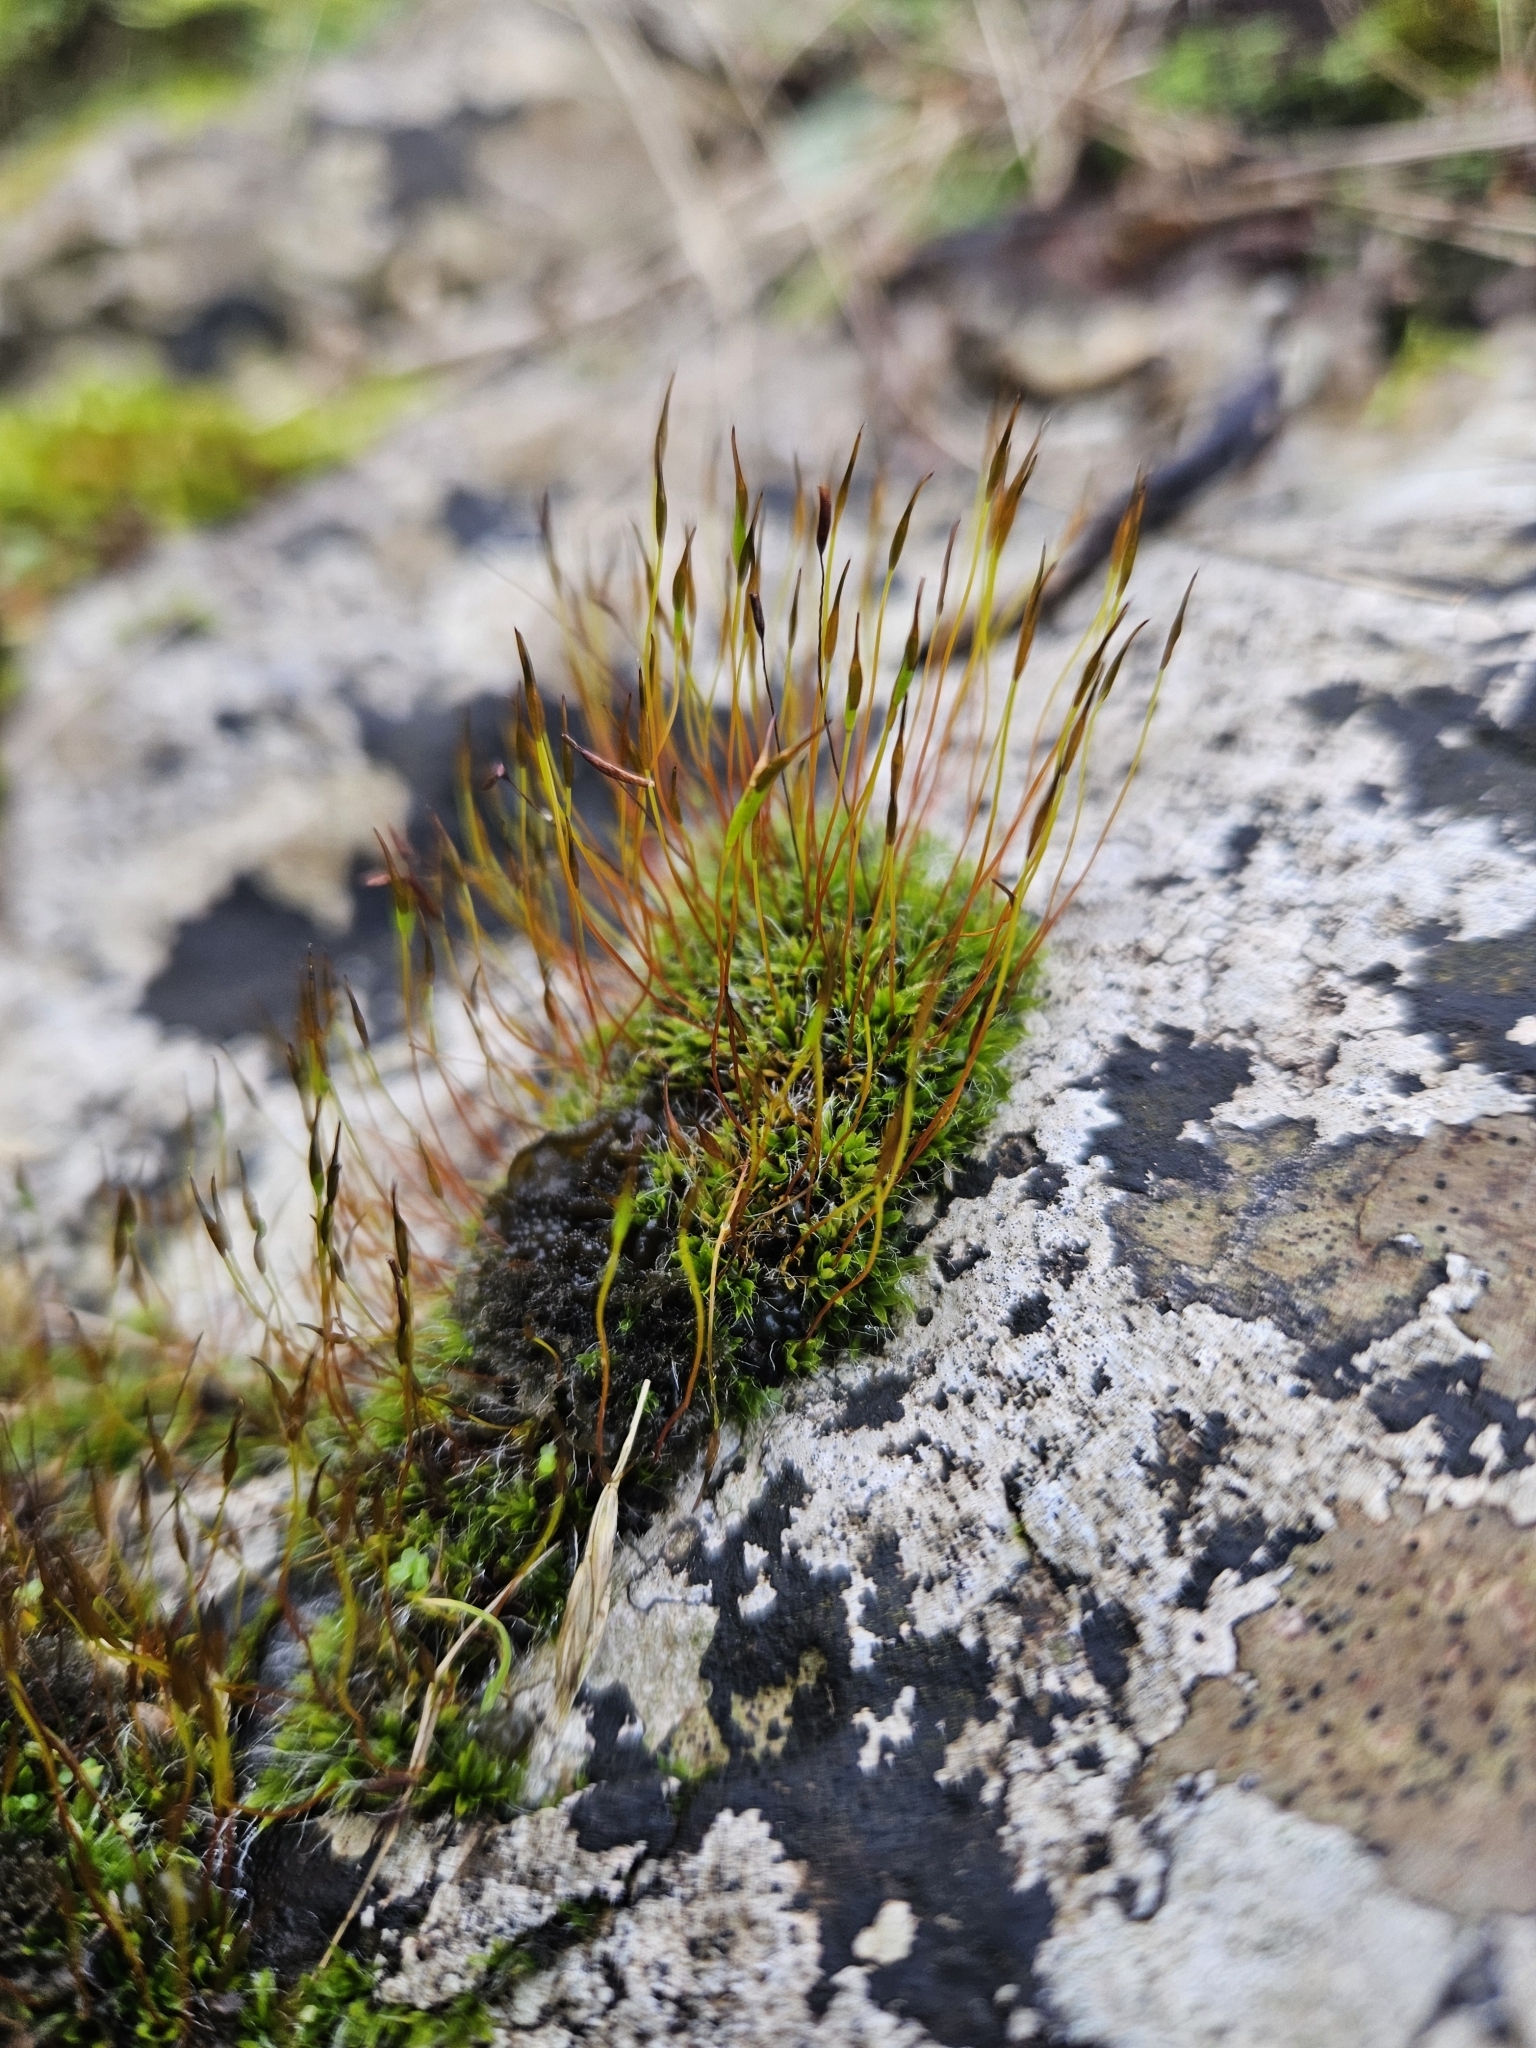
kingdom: Plantae
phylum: Bryophyta
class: Bryopsida
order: Pottiales
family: Pottiaceae
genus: Tortula
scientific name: Tortula muralis
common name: Wall screw-moss
